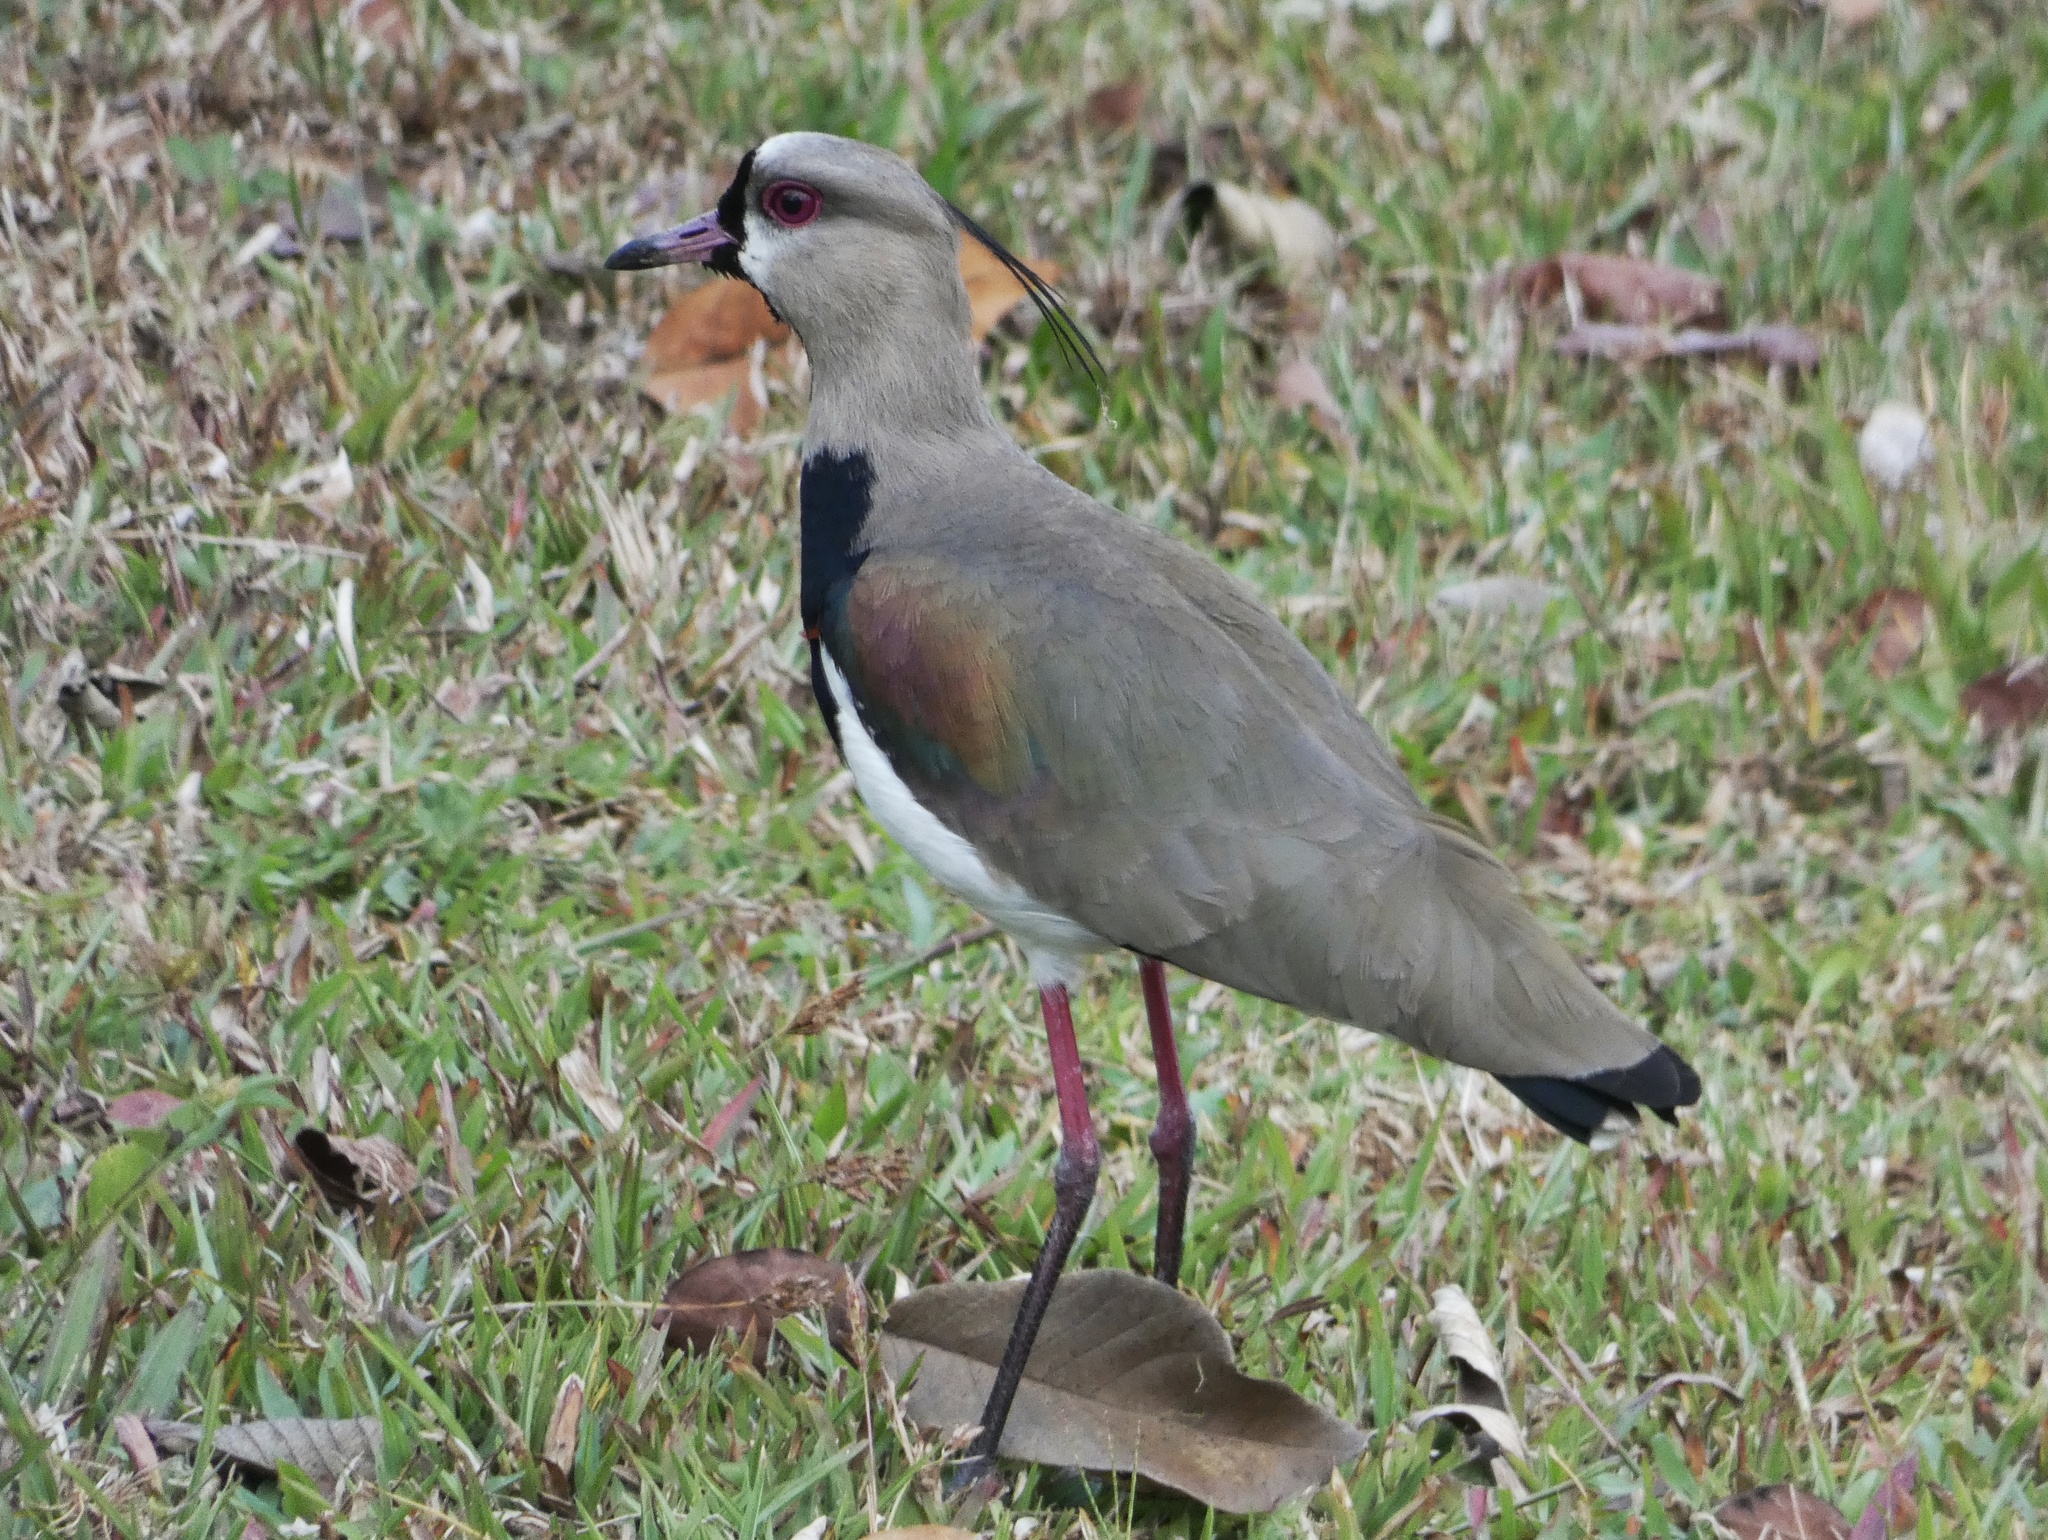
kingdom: Animalia
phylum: Chordata
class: Aves
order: Charadriiformes
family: Charadriidae
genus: Vanellus
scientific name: Vanellus chilensis
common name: Southern lapwing
